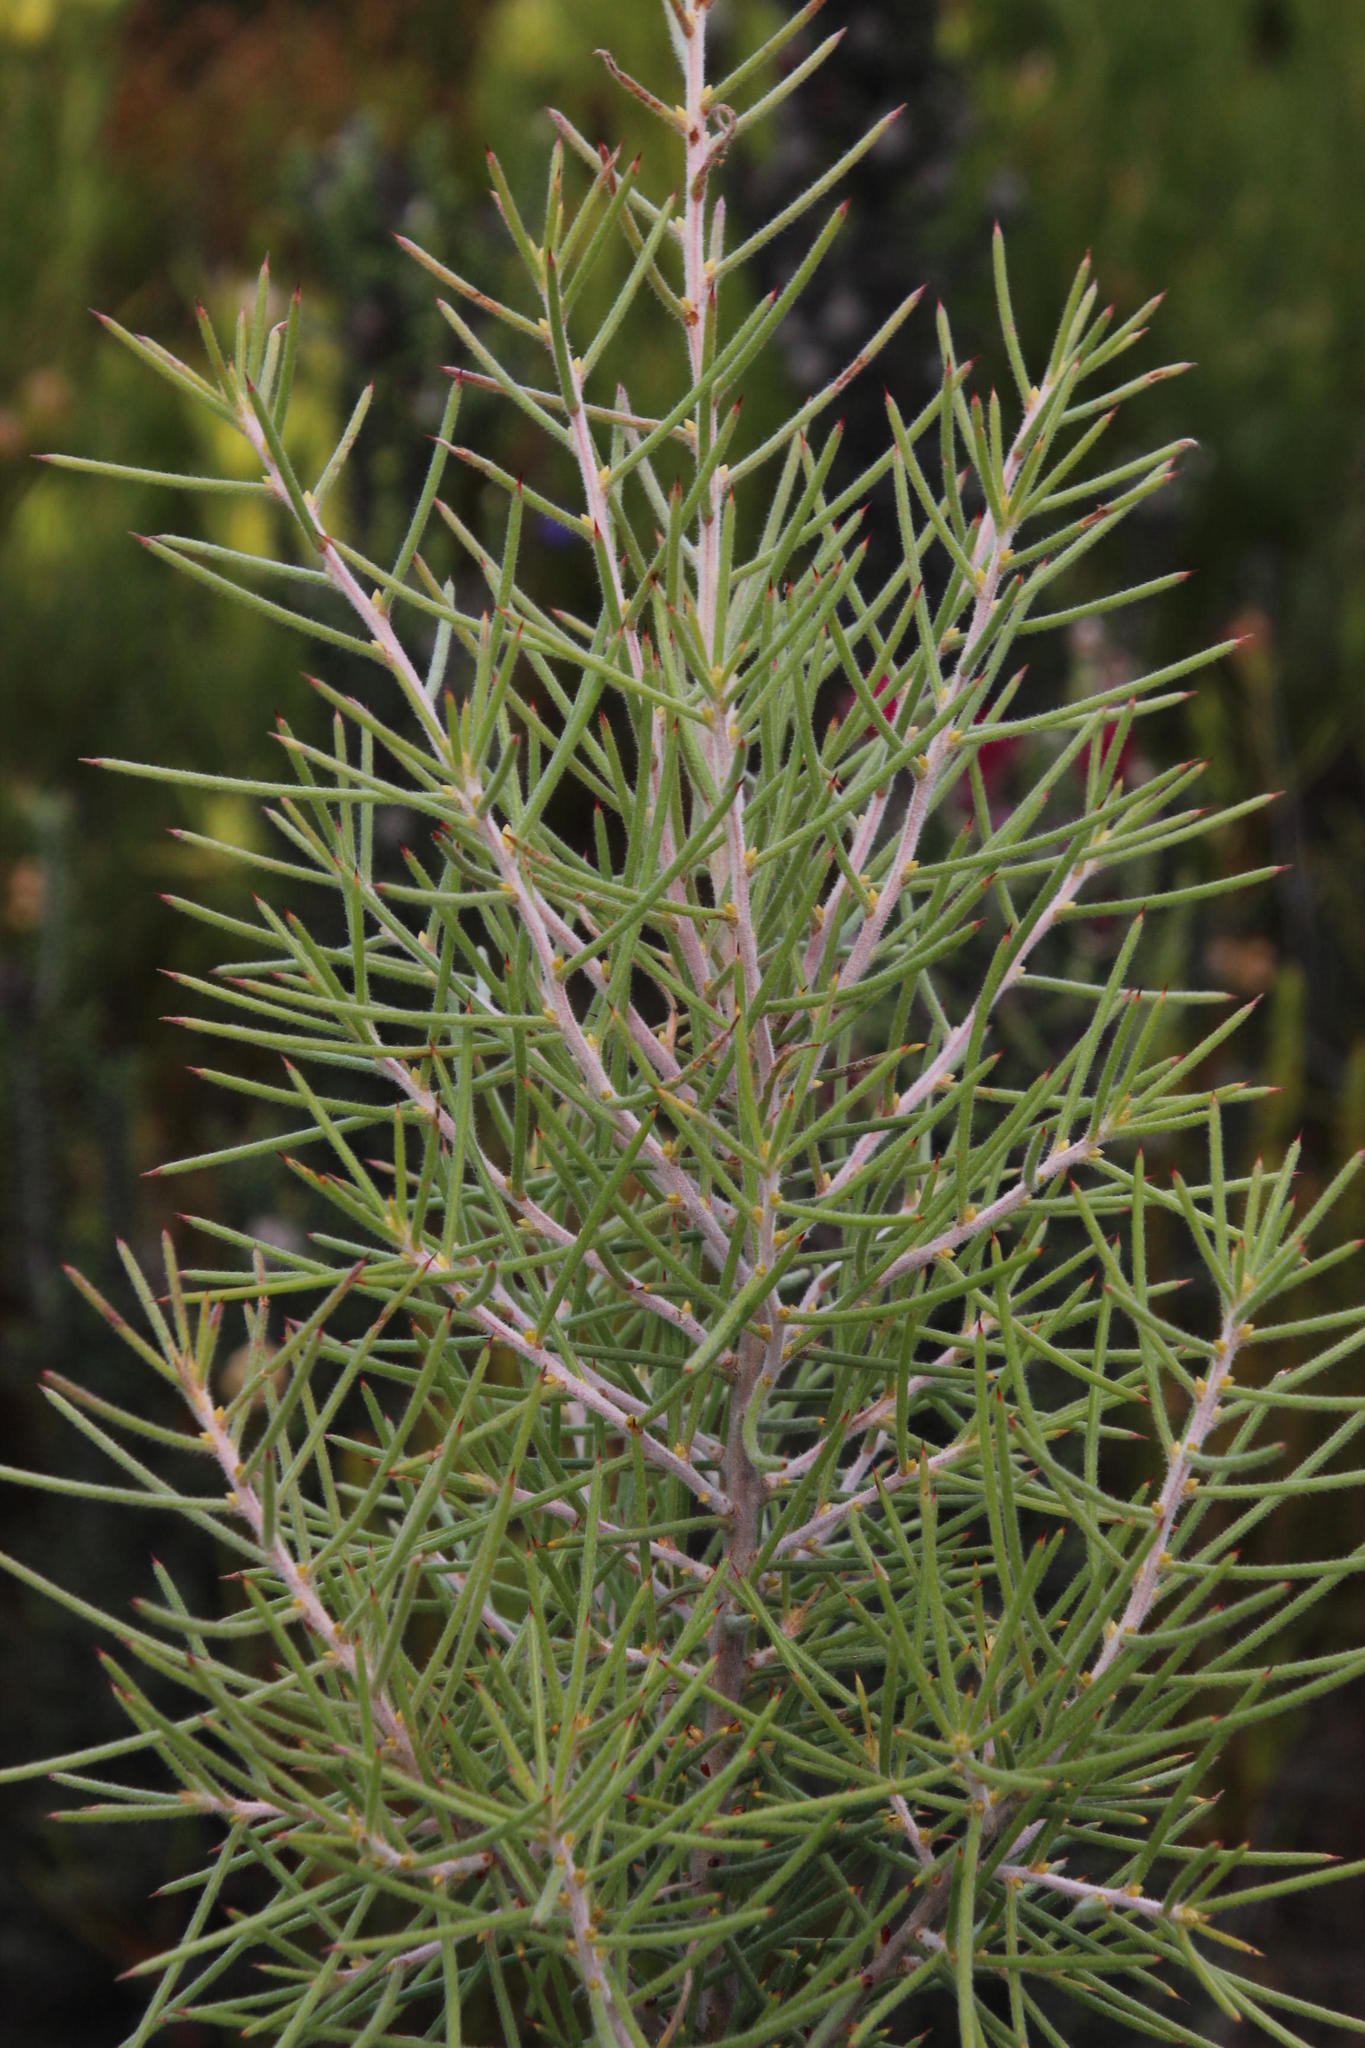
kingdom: Plantae
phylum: Tracheophyta
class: Magnoliopsida
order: Proteales
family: Proteaceae
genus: Hakea
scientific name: Hakea gibbosa
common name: Rock hakea
